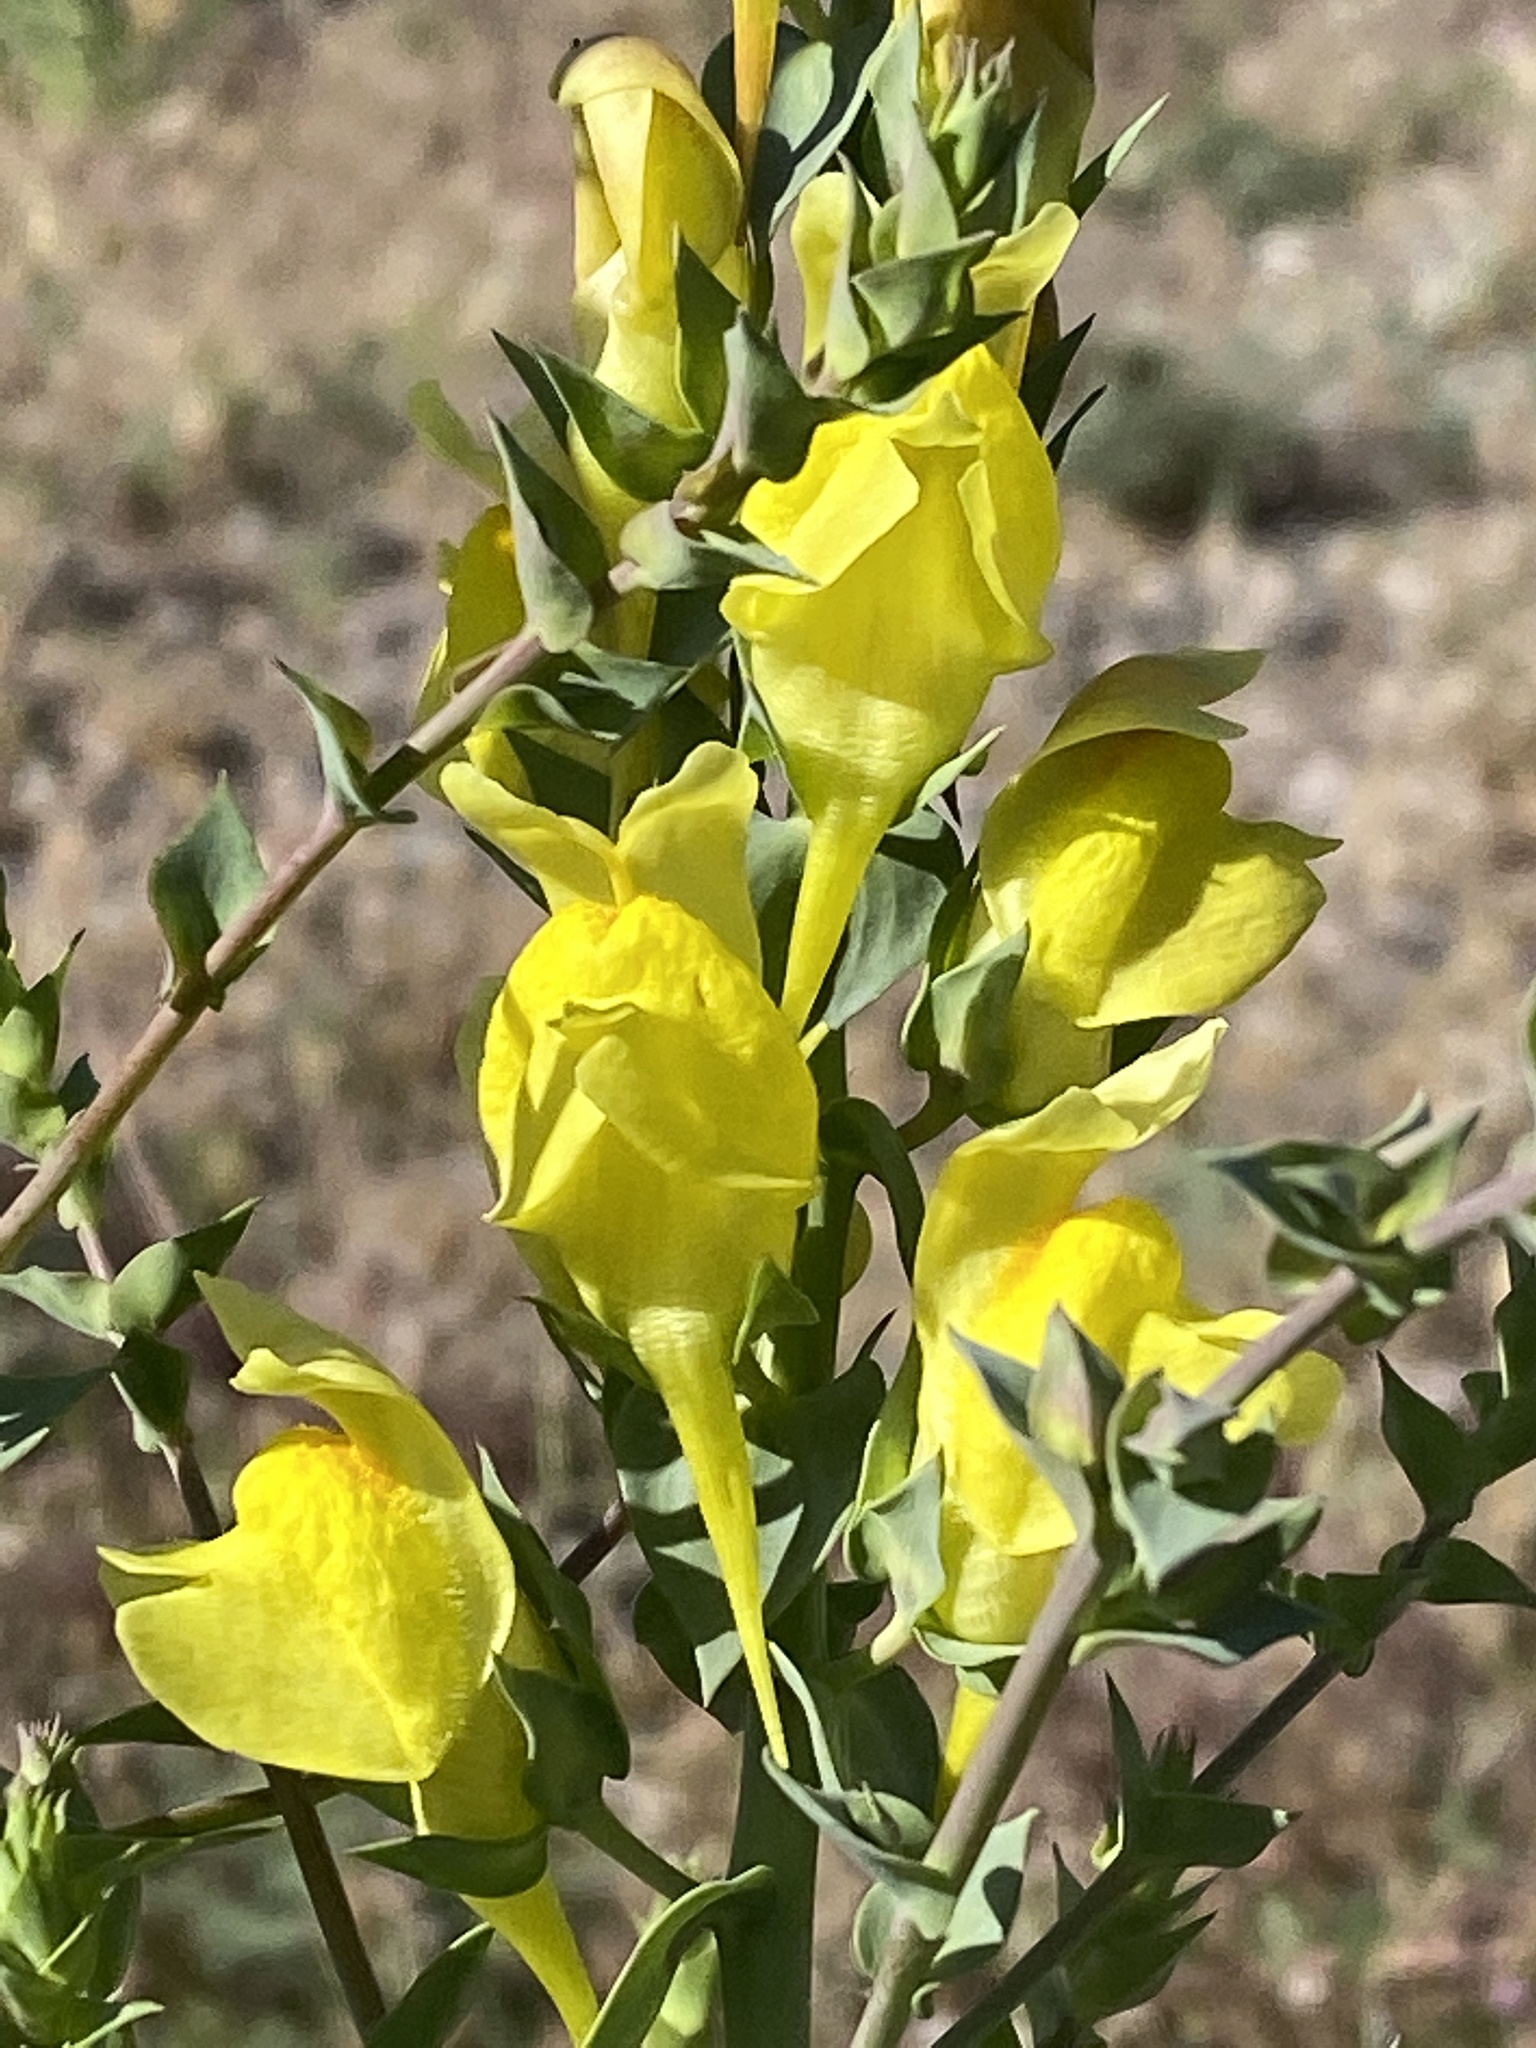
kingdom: Plantae
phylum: Tracheophyta
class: Magnoliopsida
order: Lamiales
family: Plantaginaceae
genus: Linaria
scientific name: Linaria dalmatica
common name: Dalmatian toadflax
